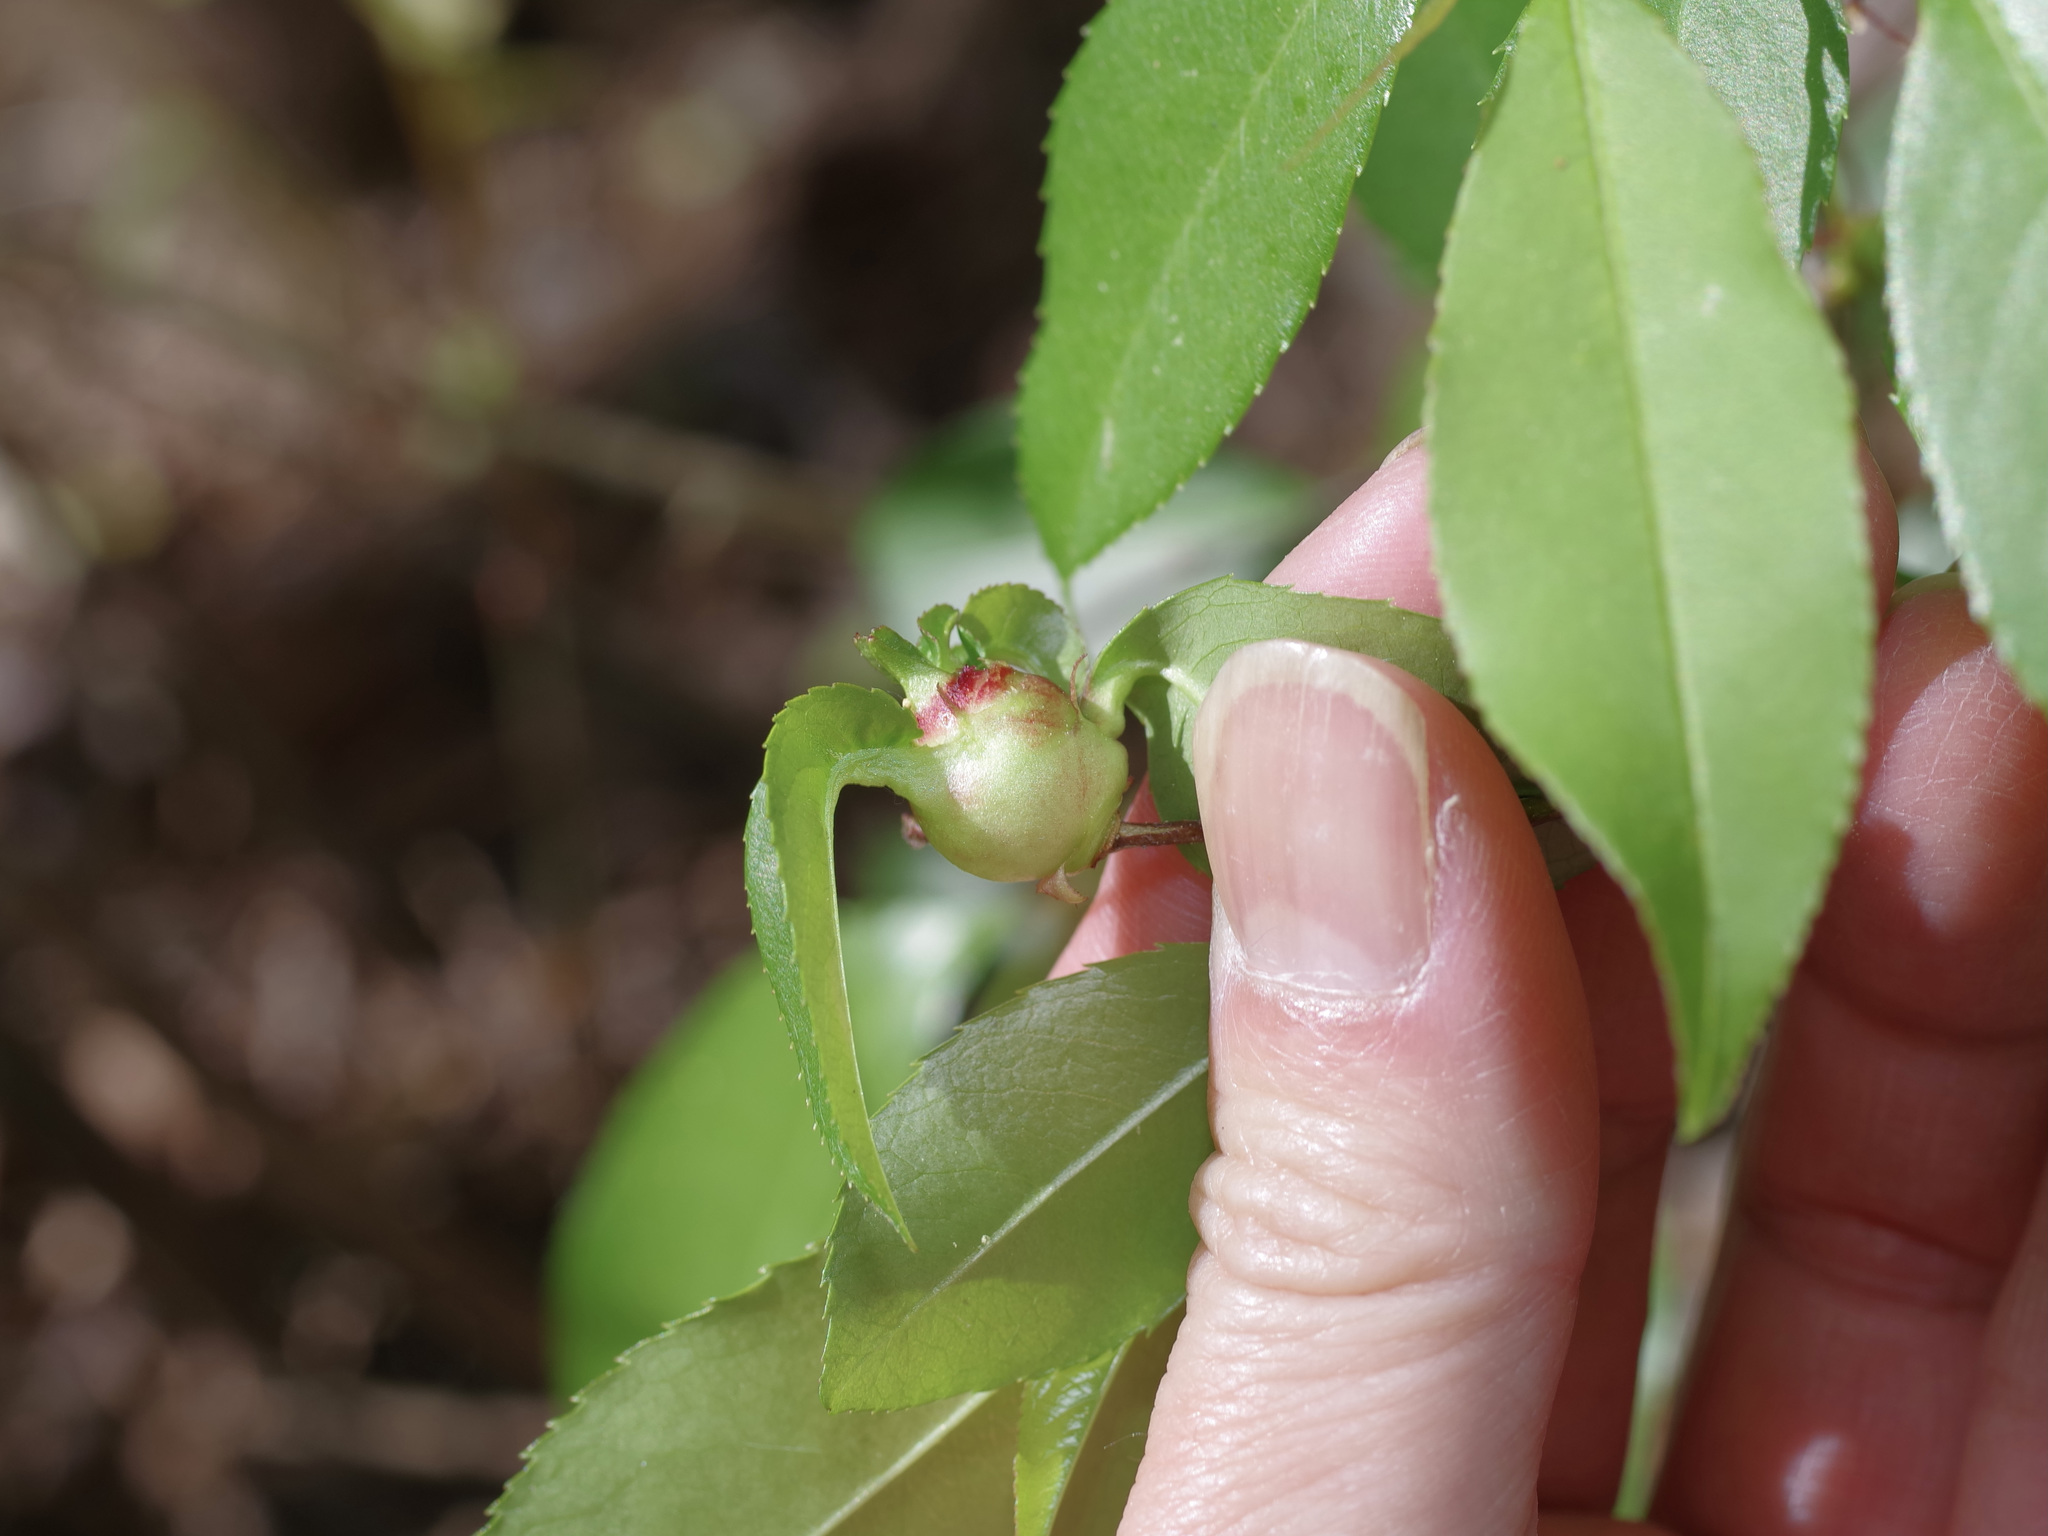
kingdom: Animalia
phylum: Arthropoda
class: Insecta
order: Diptera
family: Cecidomyiidae
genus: Contarinia
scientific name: Contarinia cerasiserotinae
